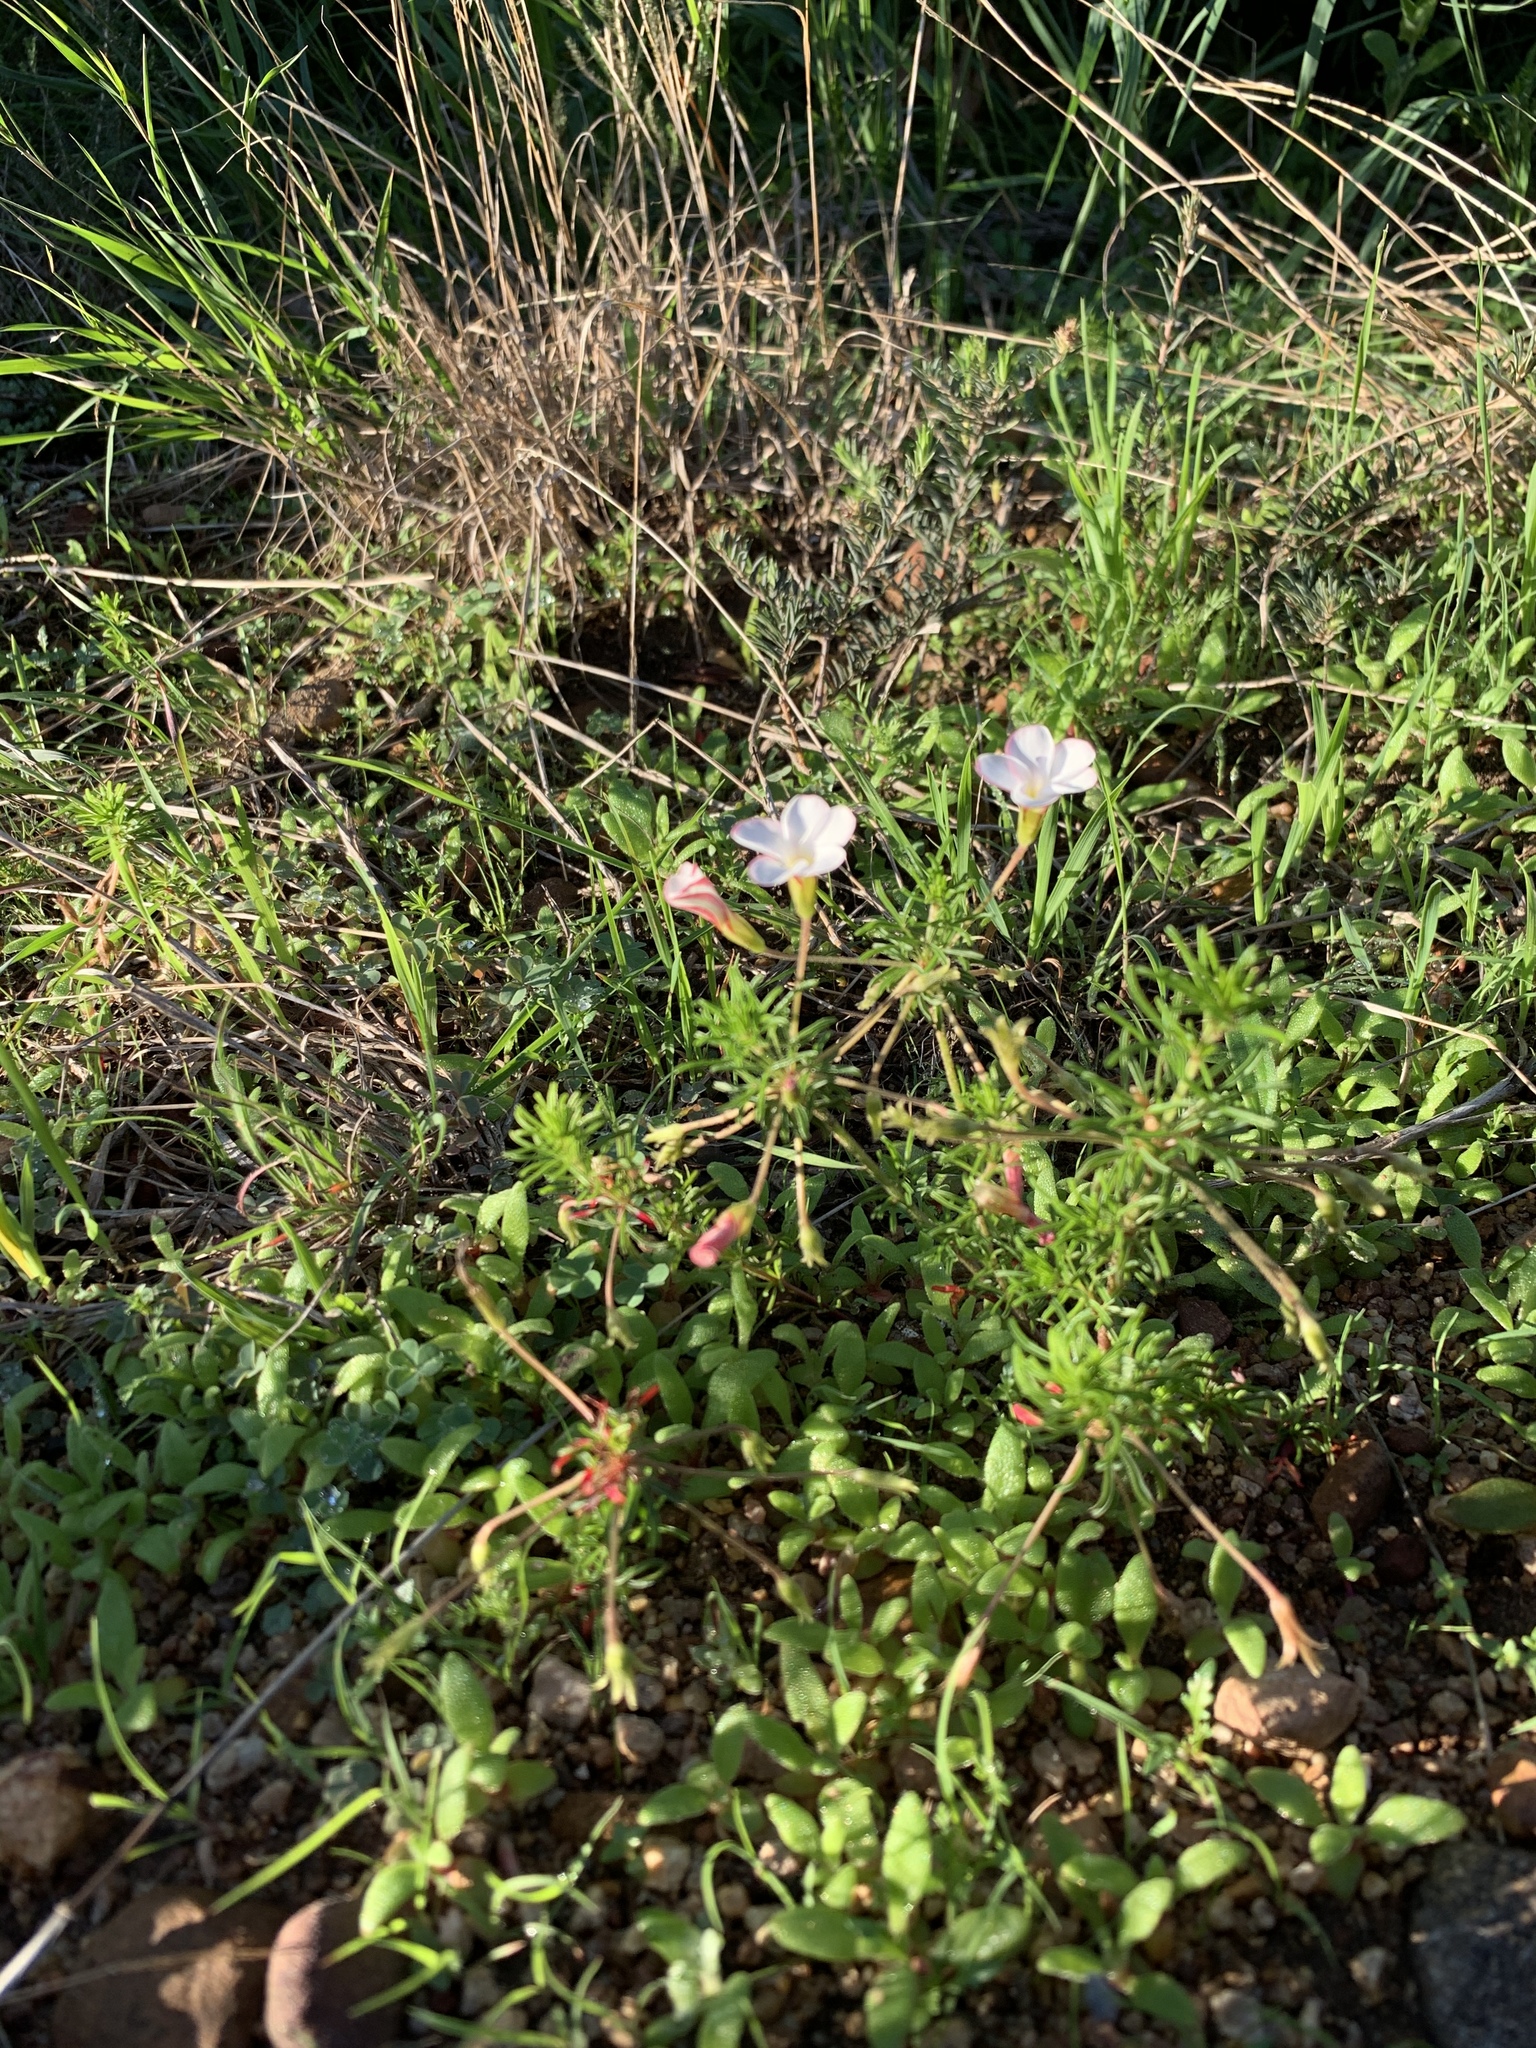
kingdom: Plantae
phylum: Tracheophyta
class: Magnoliopsida
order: Oxalidales
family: Oxalidaceae
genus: Oxalis
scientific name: Oxalis tenuifolia
